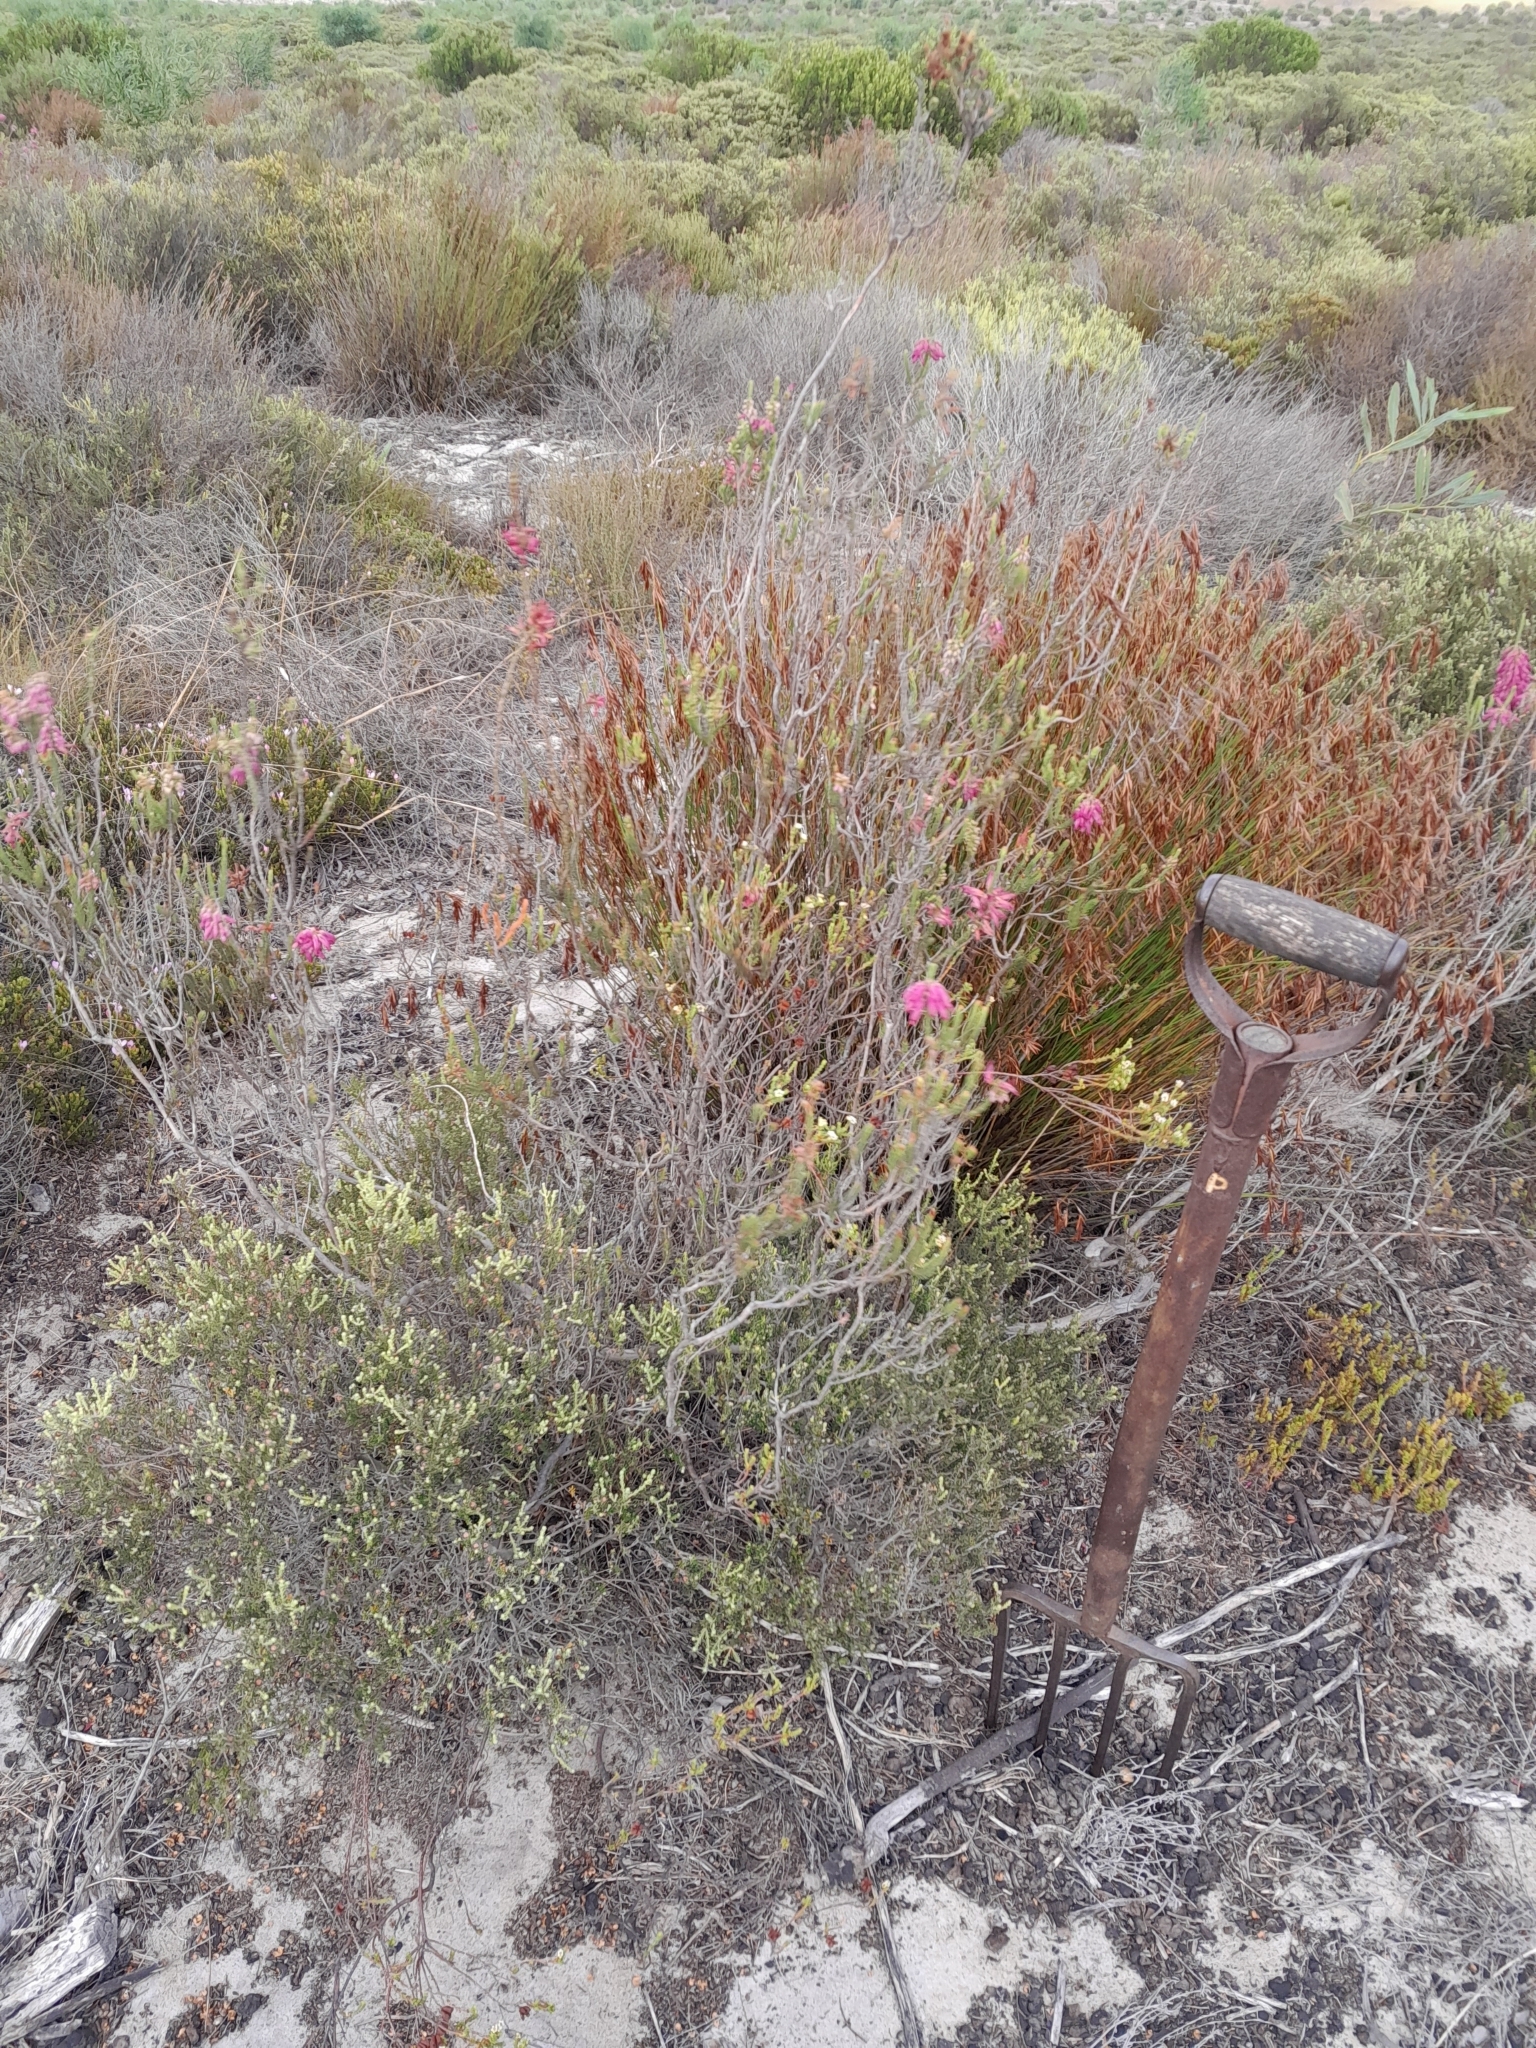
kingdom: Plantae
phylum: Tracheophyta
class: Magnoliopsida
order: Ericales
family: Ericaceae
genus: Erica
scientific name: Erica mammosa
